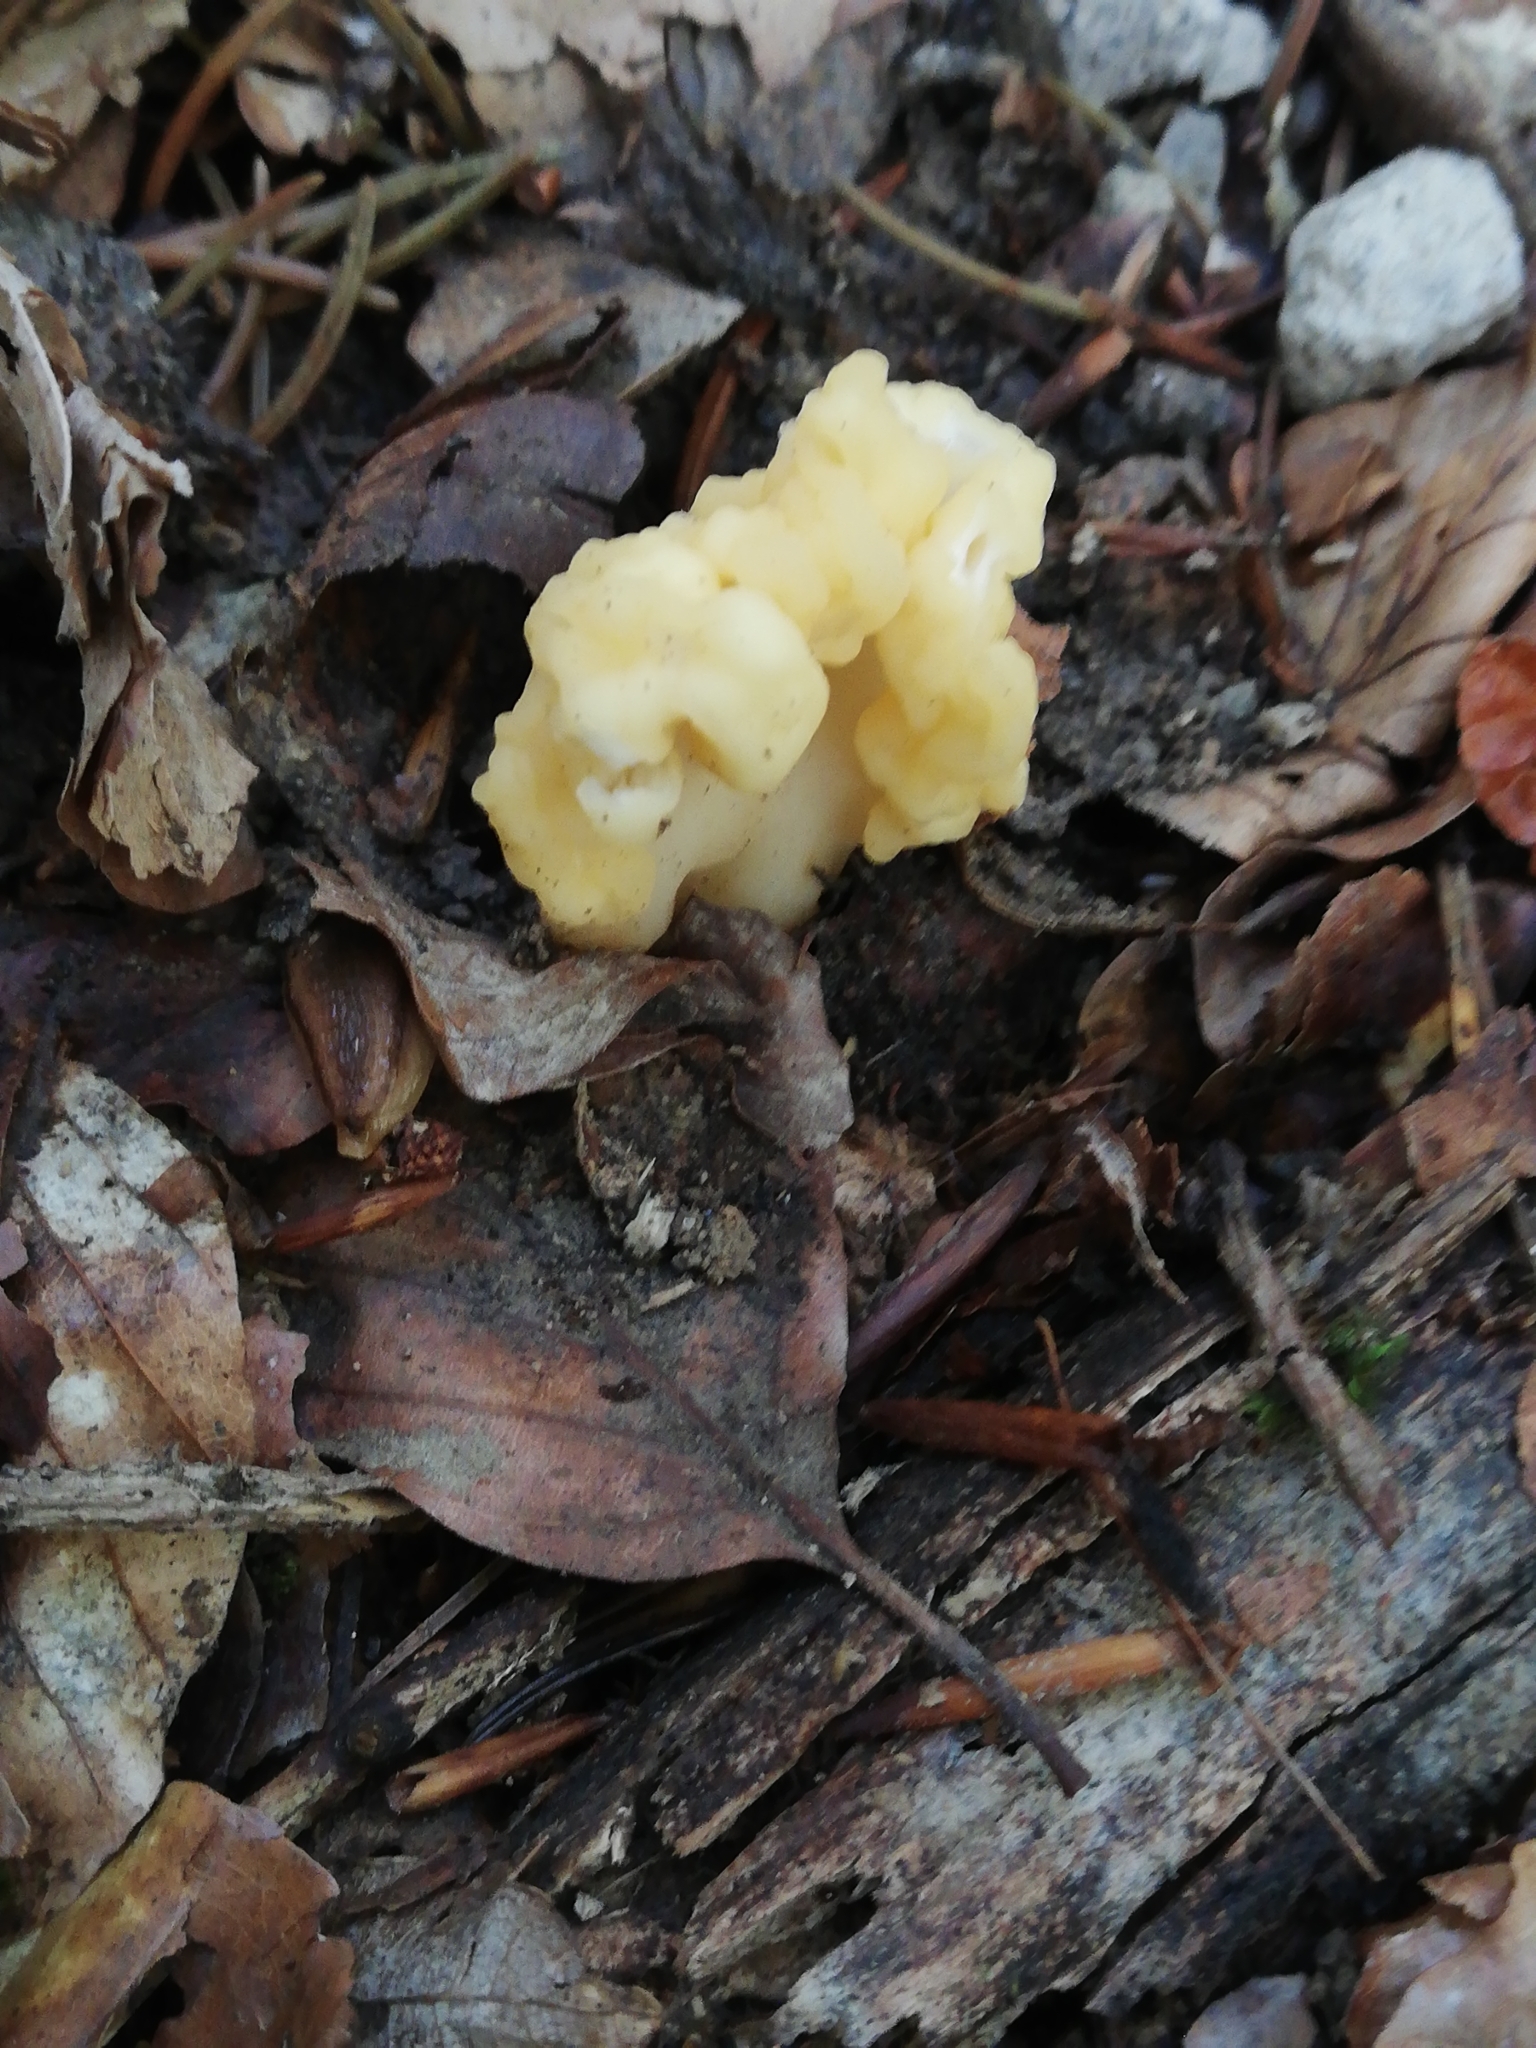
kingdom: Fungi
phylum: Ascomycota
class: Leotiomycetes
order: Rhytismatales
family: Cudoniaceae
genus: Spathularia
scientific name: Spathularia flavida
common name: Yellow fan
